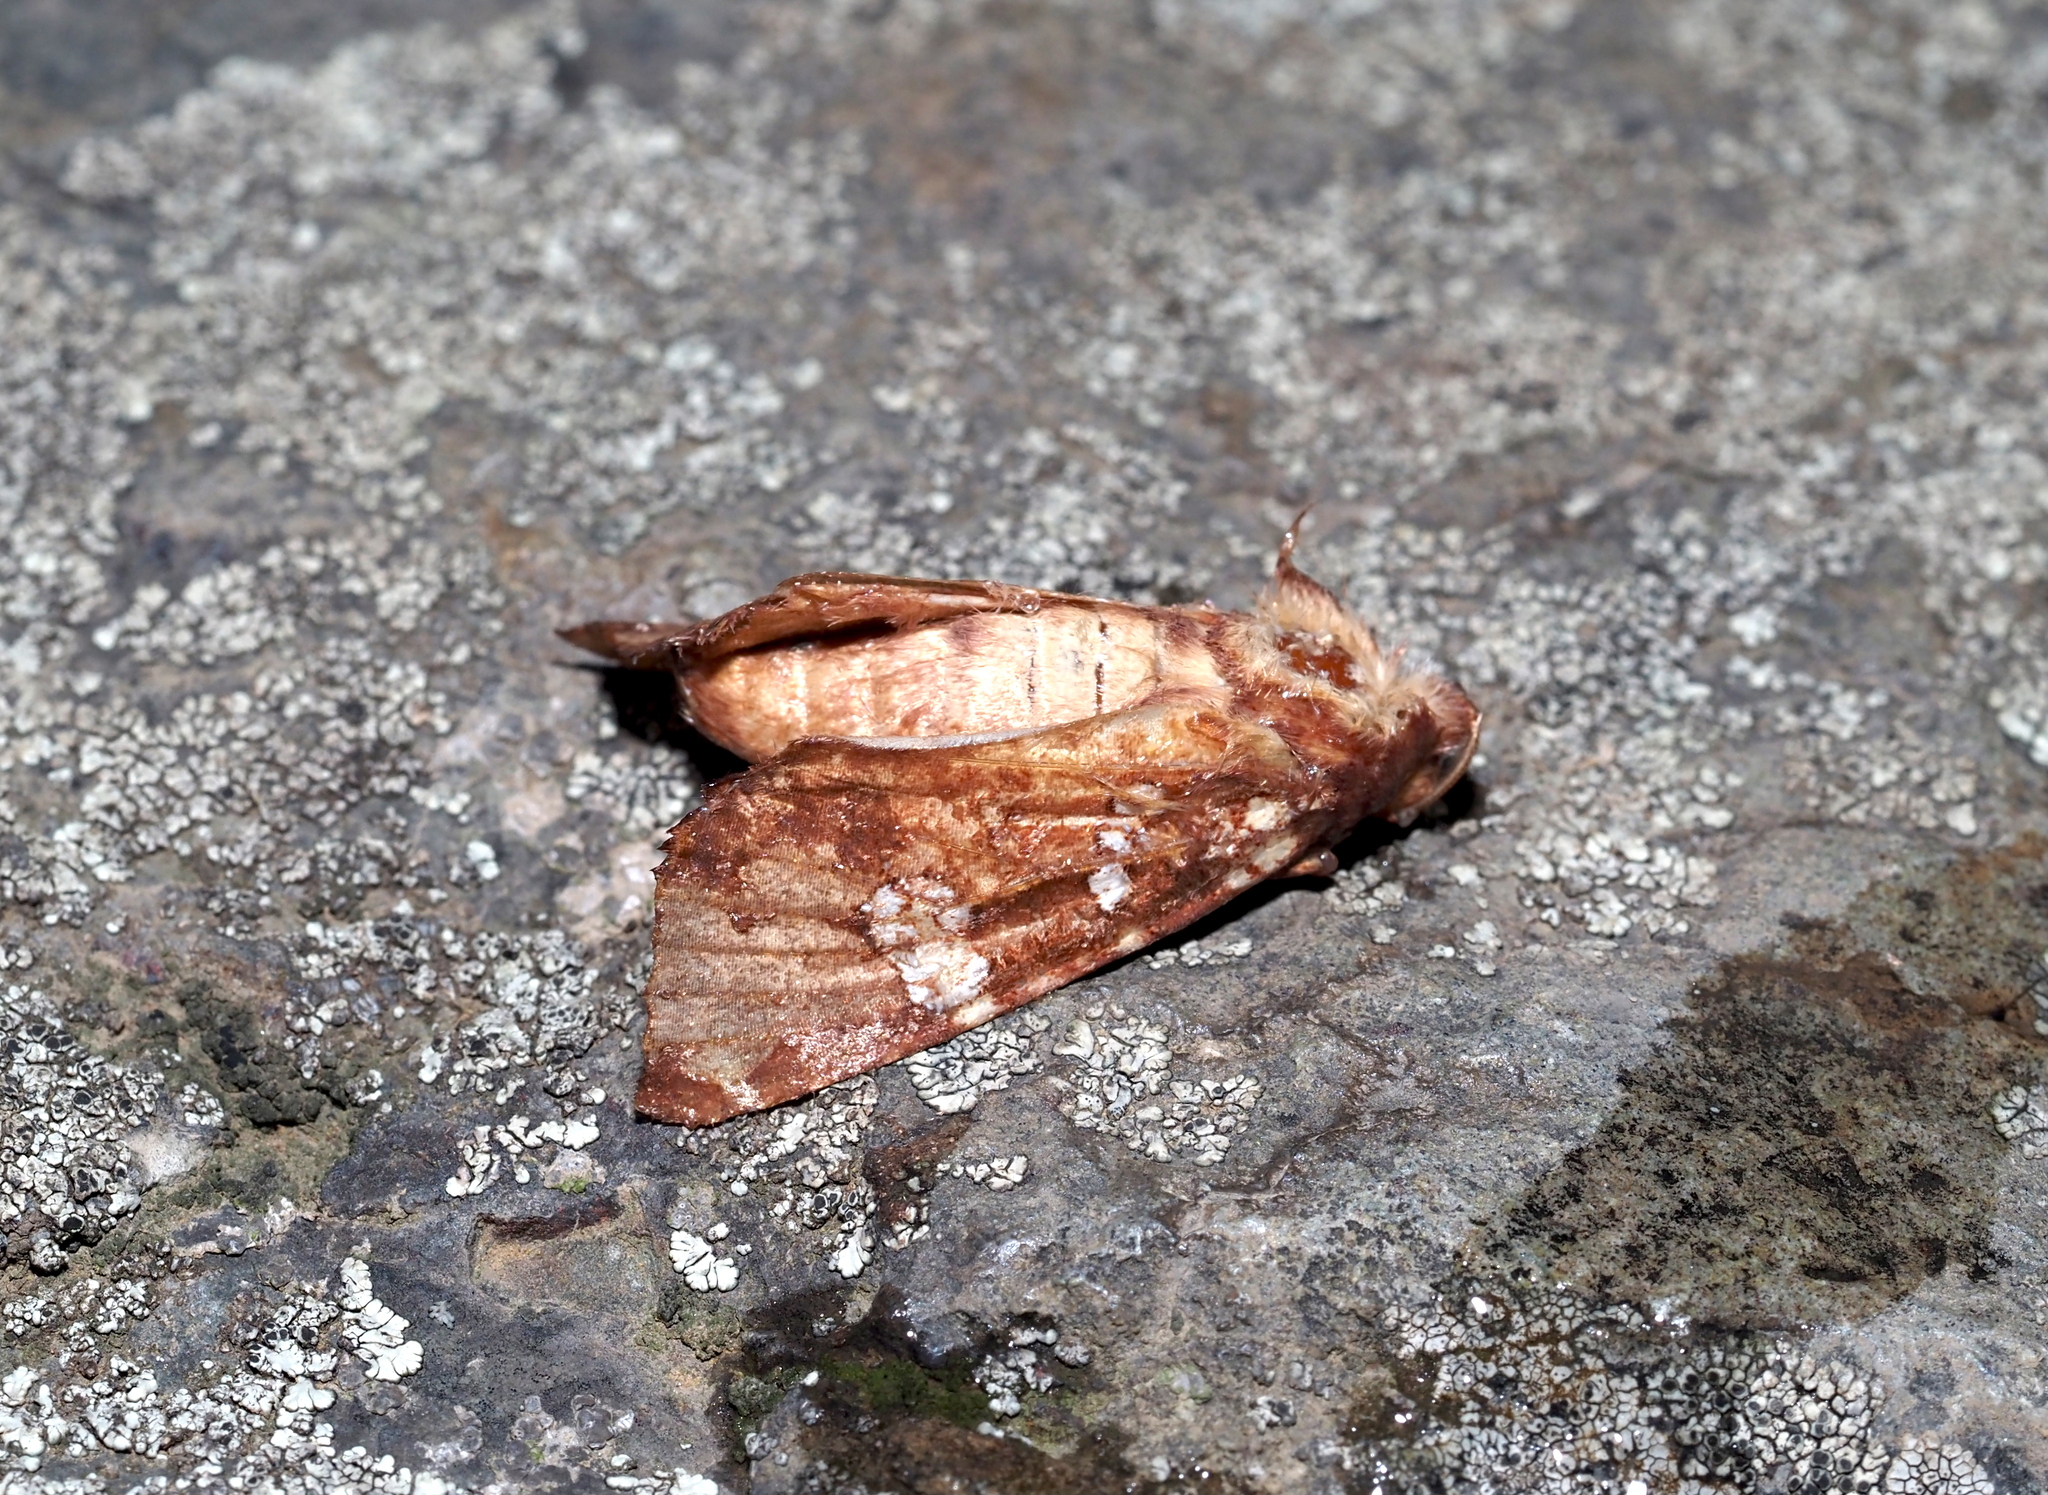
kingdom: Animalia
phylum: Arthropoda
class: Insecta
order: Lepidoptera
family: Noctuidae
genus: Papaipema
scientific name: Papaipema insulidens
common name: Ragwort stem borer moth
